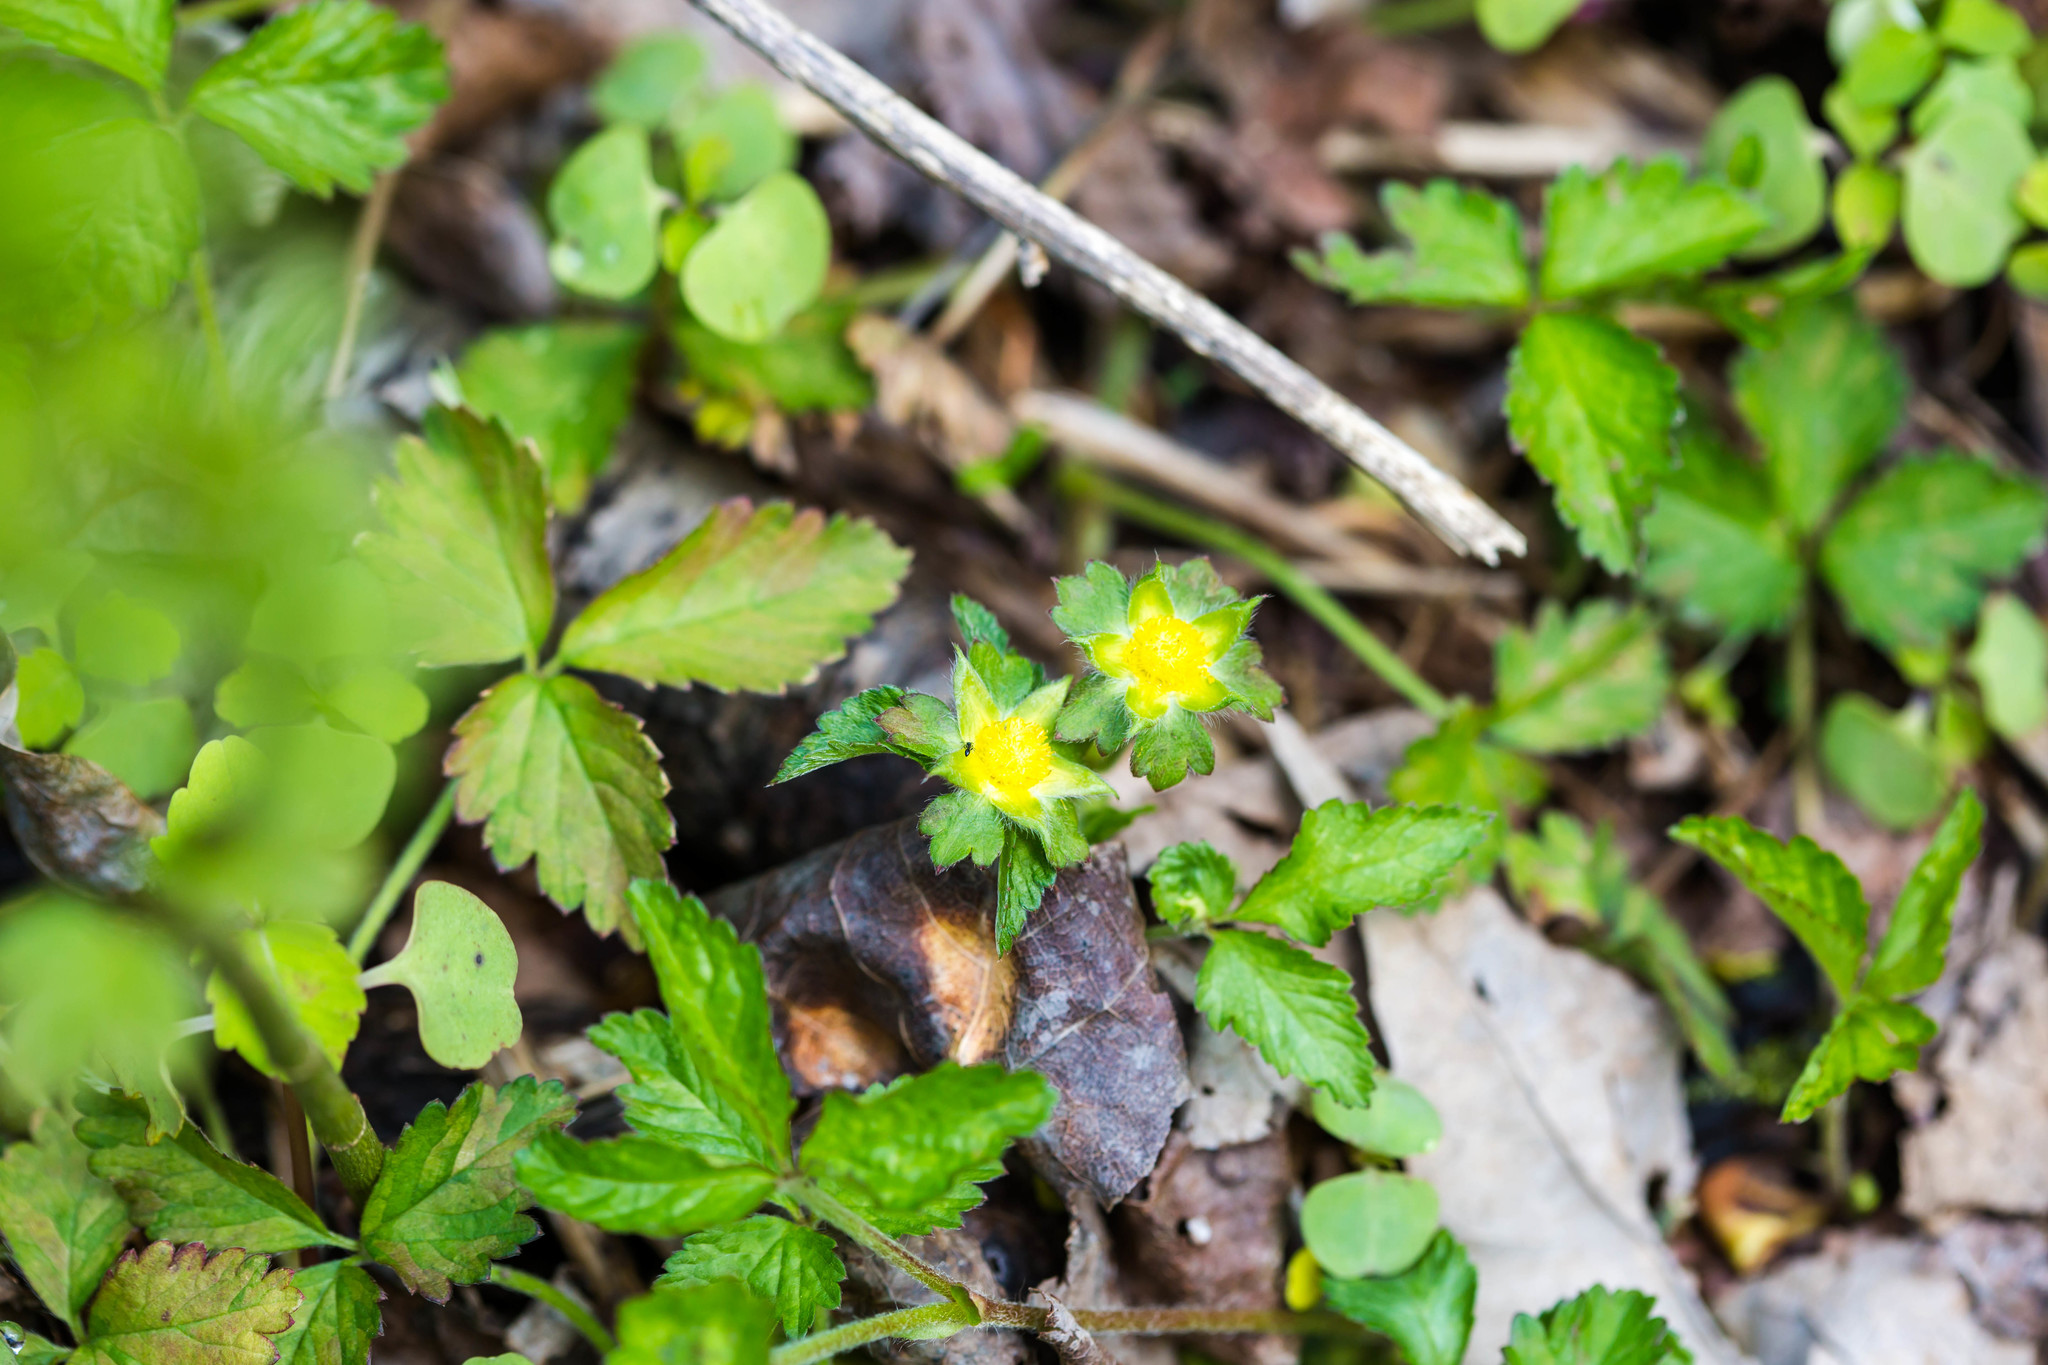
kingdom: Plantae
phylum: Tracheophyta
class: Magnoliopsida
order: Rosales
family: Rosaceae
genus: Potentilla
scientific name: Potentilla indica
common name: Yellow-flowered strawberry
